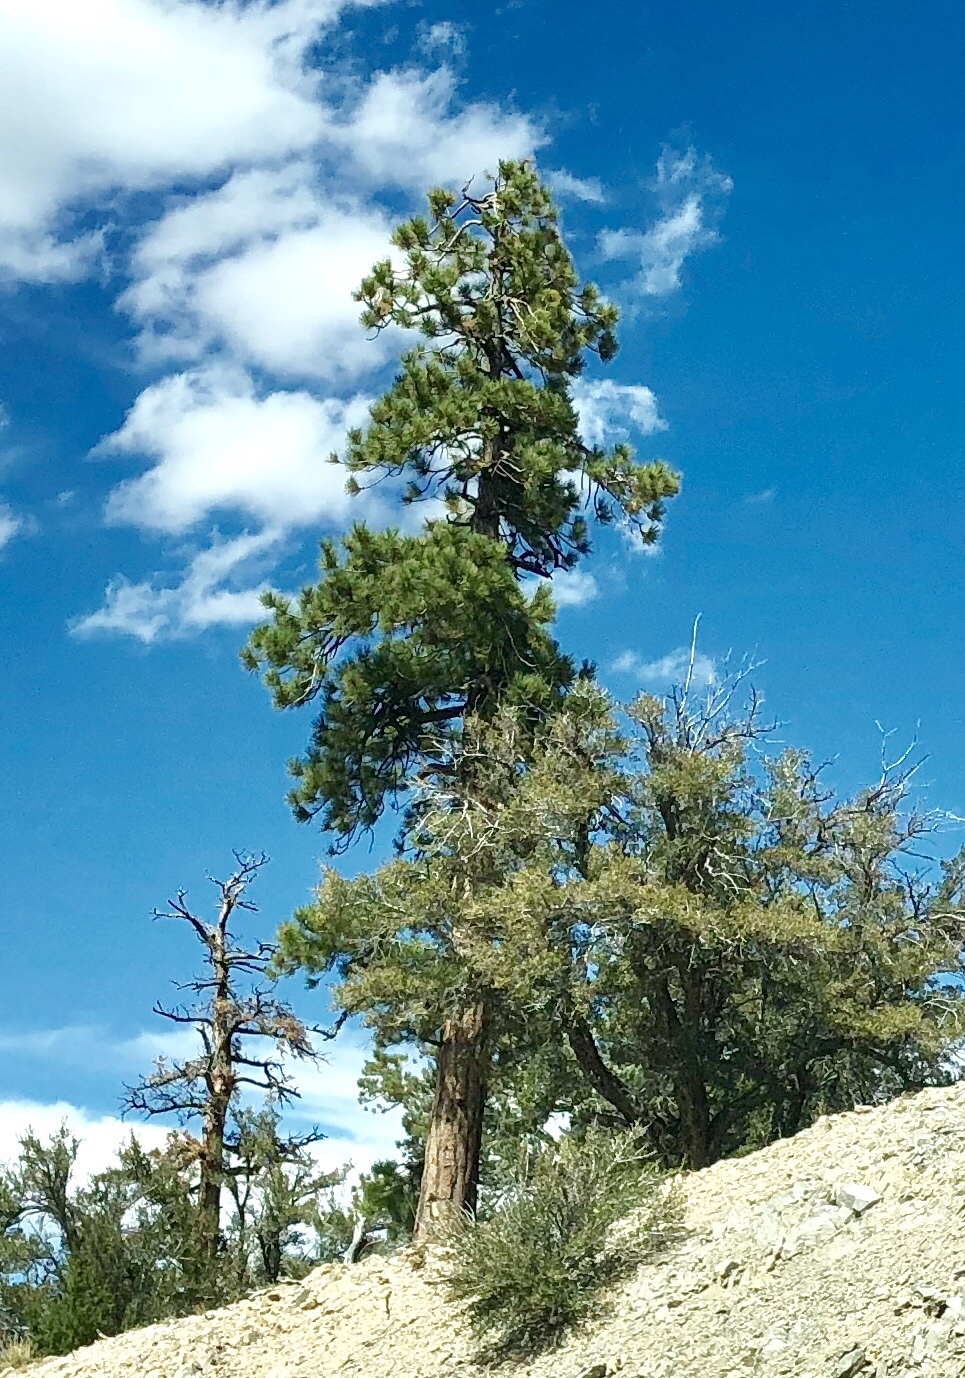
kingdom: Plantae
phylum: Tracheophyta
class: Pinopsida
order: Pinales
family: Pinaceae
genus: Pinus
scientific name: Pinus ponderosa
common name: Western yellow-pine
